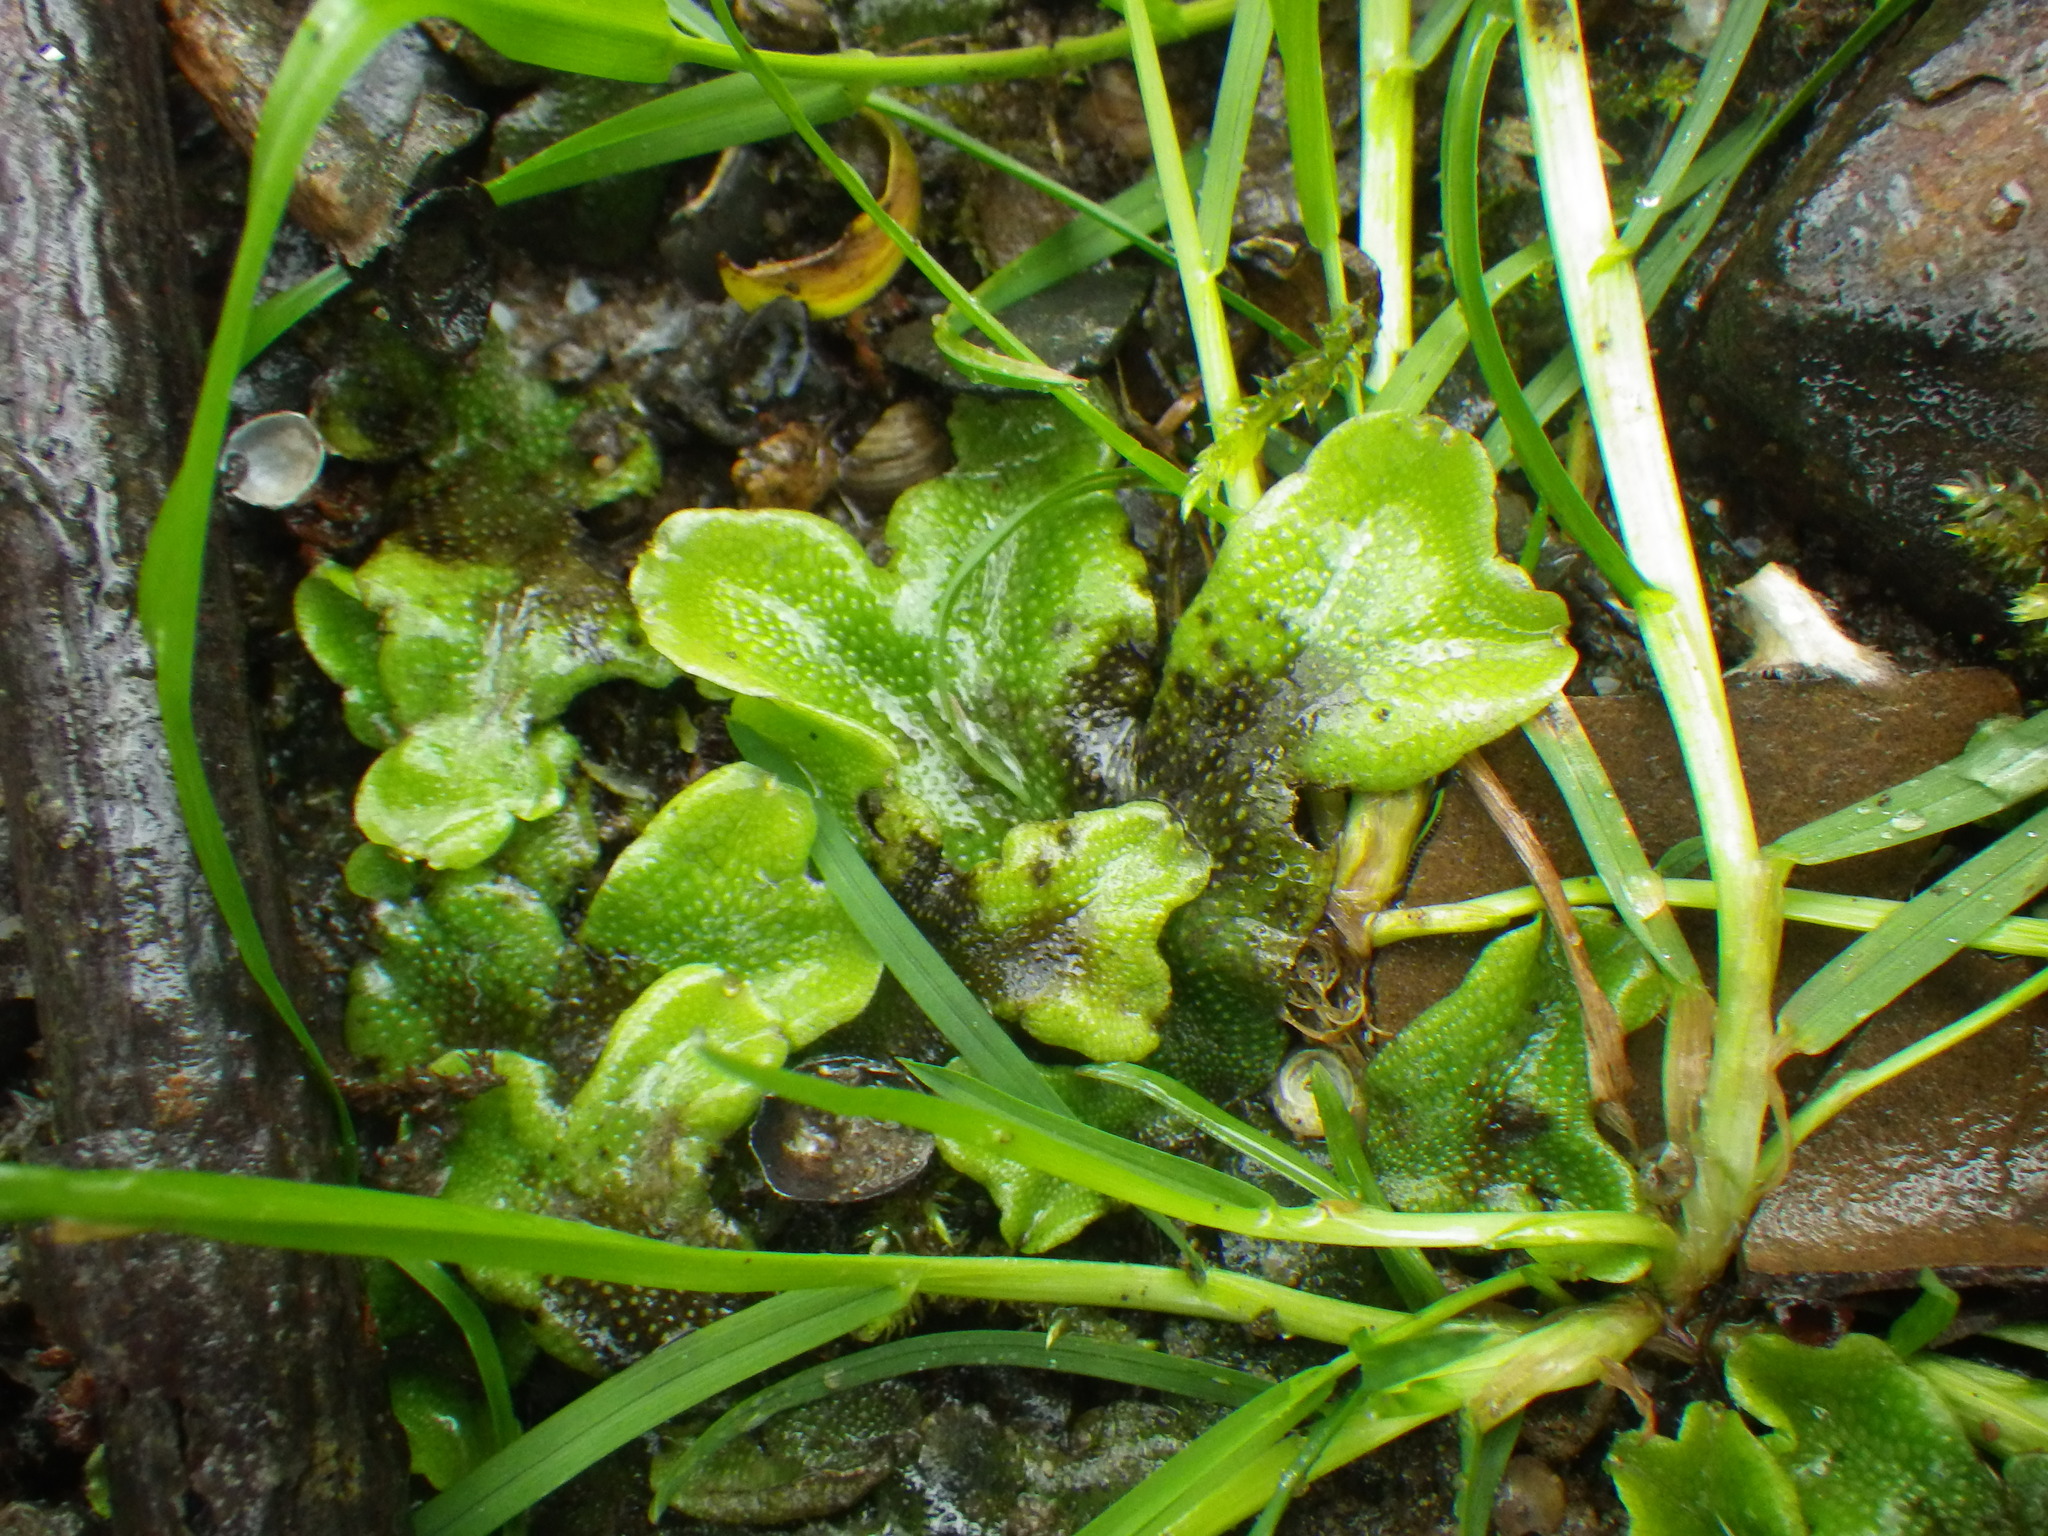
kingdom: Plantae
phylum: Marchantiophyta
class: Marchantiopsida
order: Marchantiales
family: Conocephalaceae
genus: Conocephalum
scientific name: Conocephalum conicum
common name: Great scented liverwort
